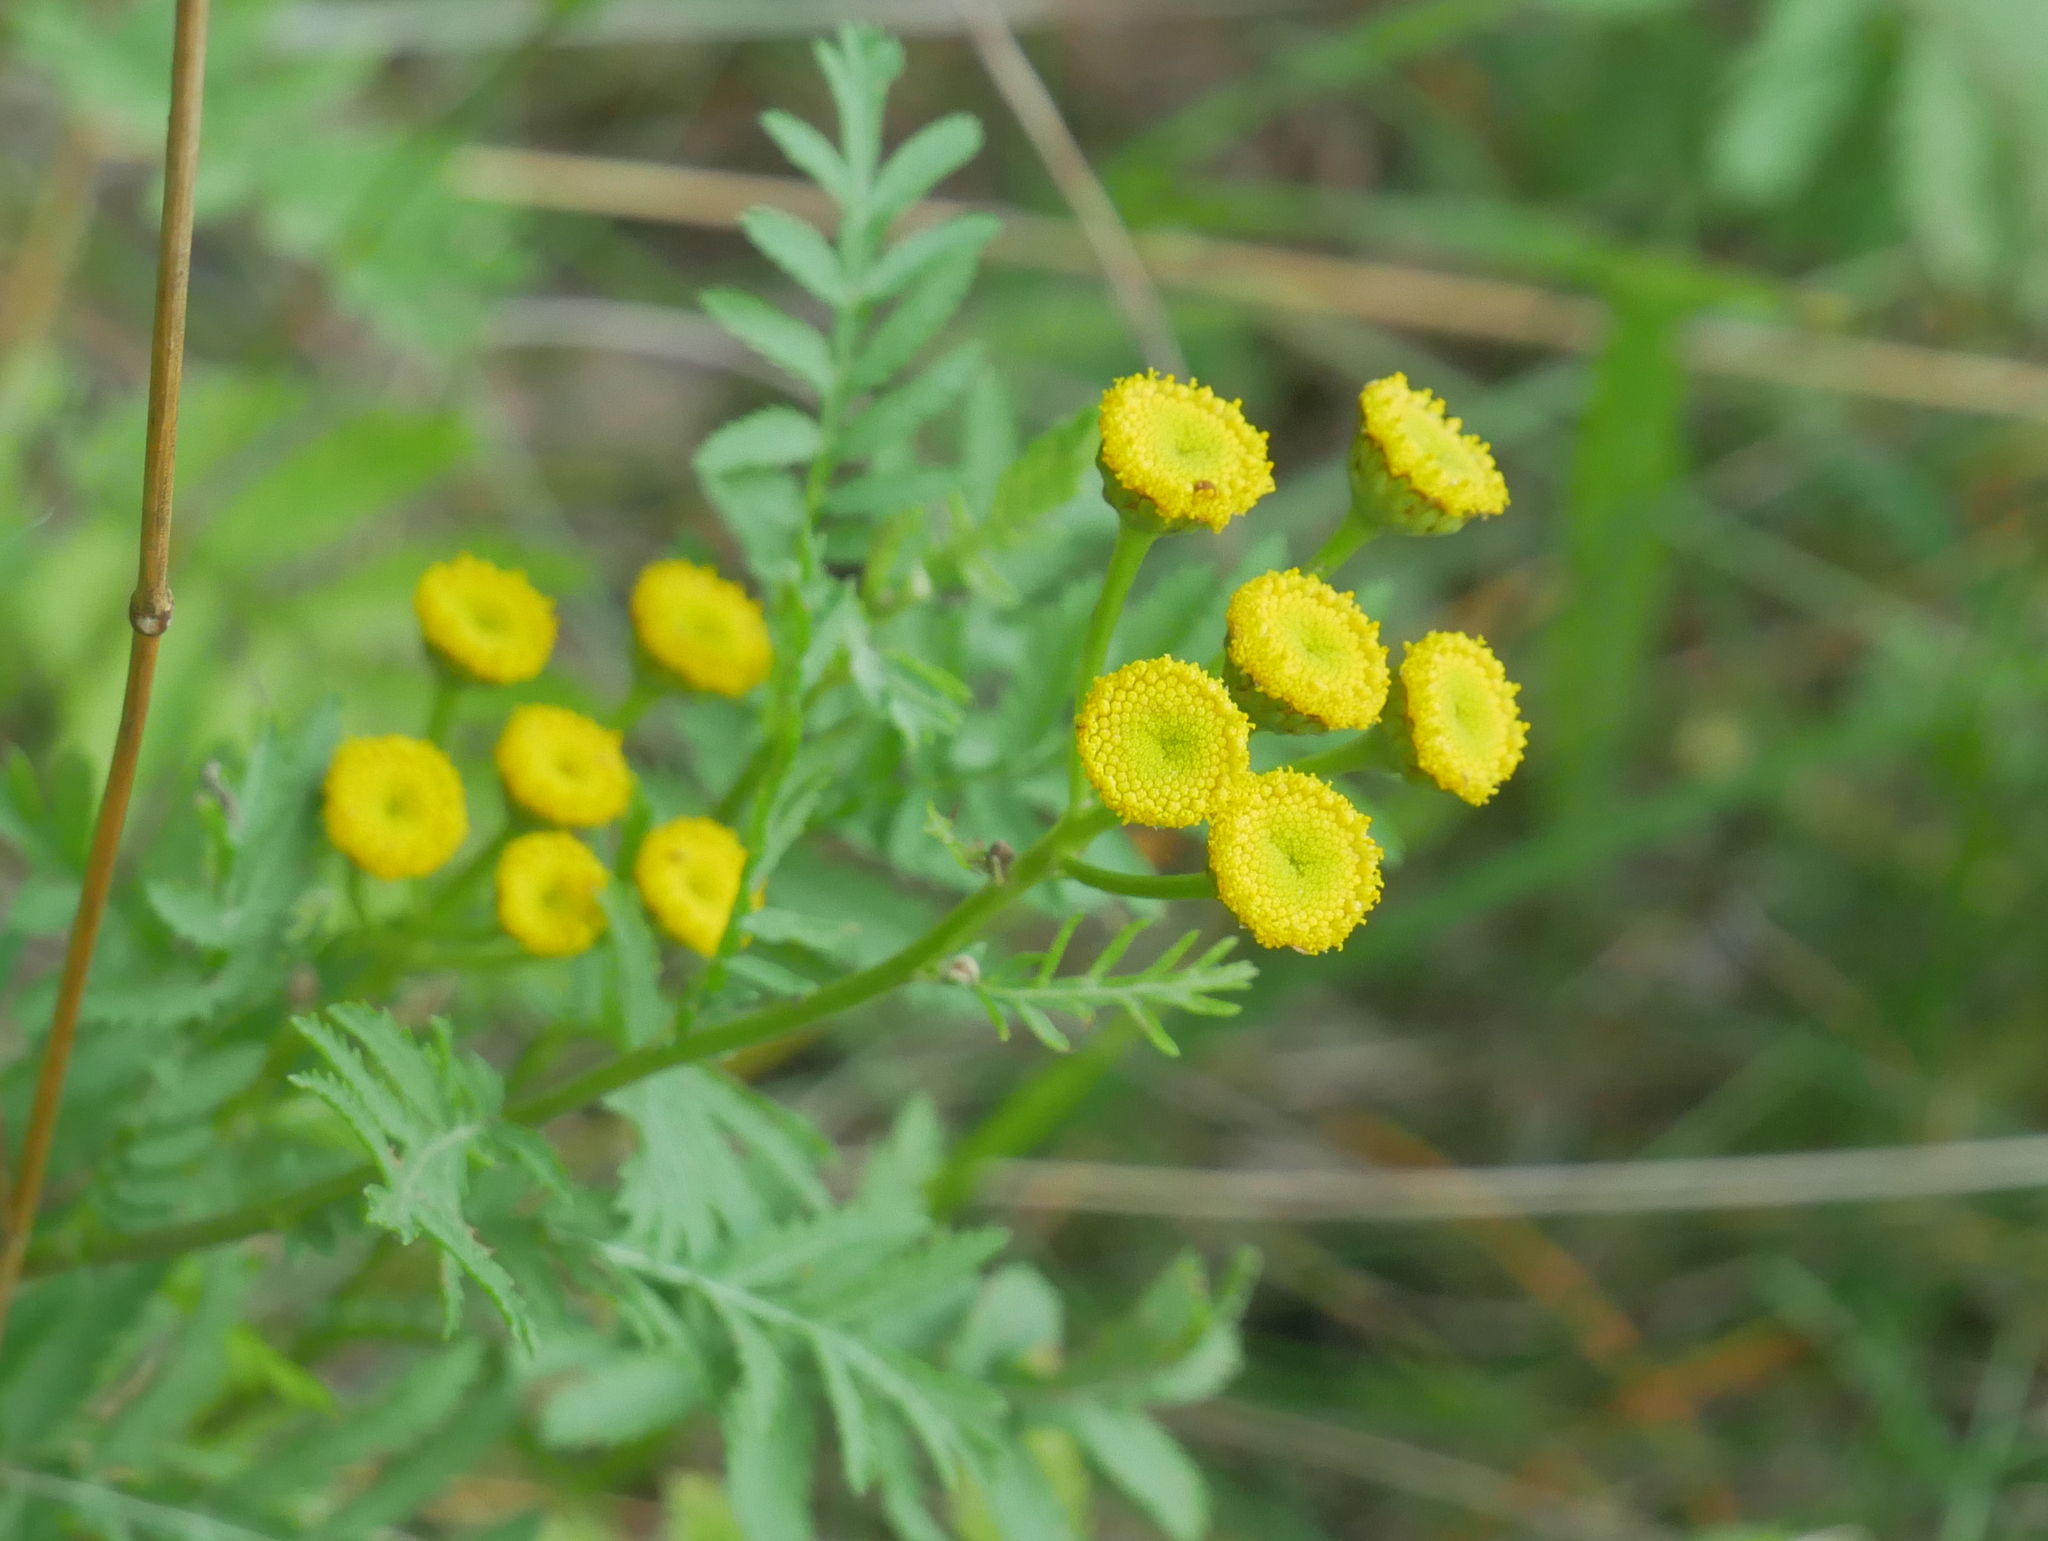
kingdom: Plantae
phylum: Tracheophyta
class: Magnoliopsida
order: Asterales
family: Asteraceae
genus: Tanacetum
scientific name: Tanacetum vulgare
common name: Common tansy
